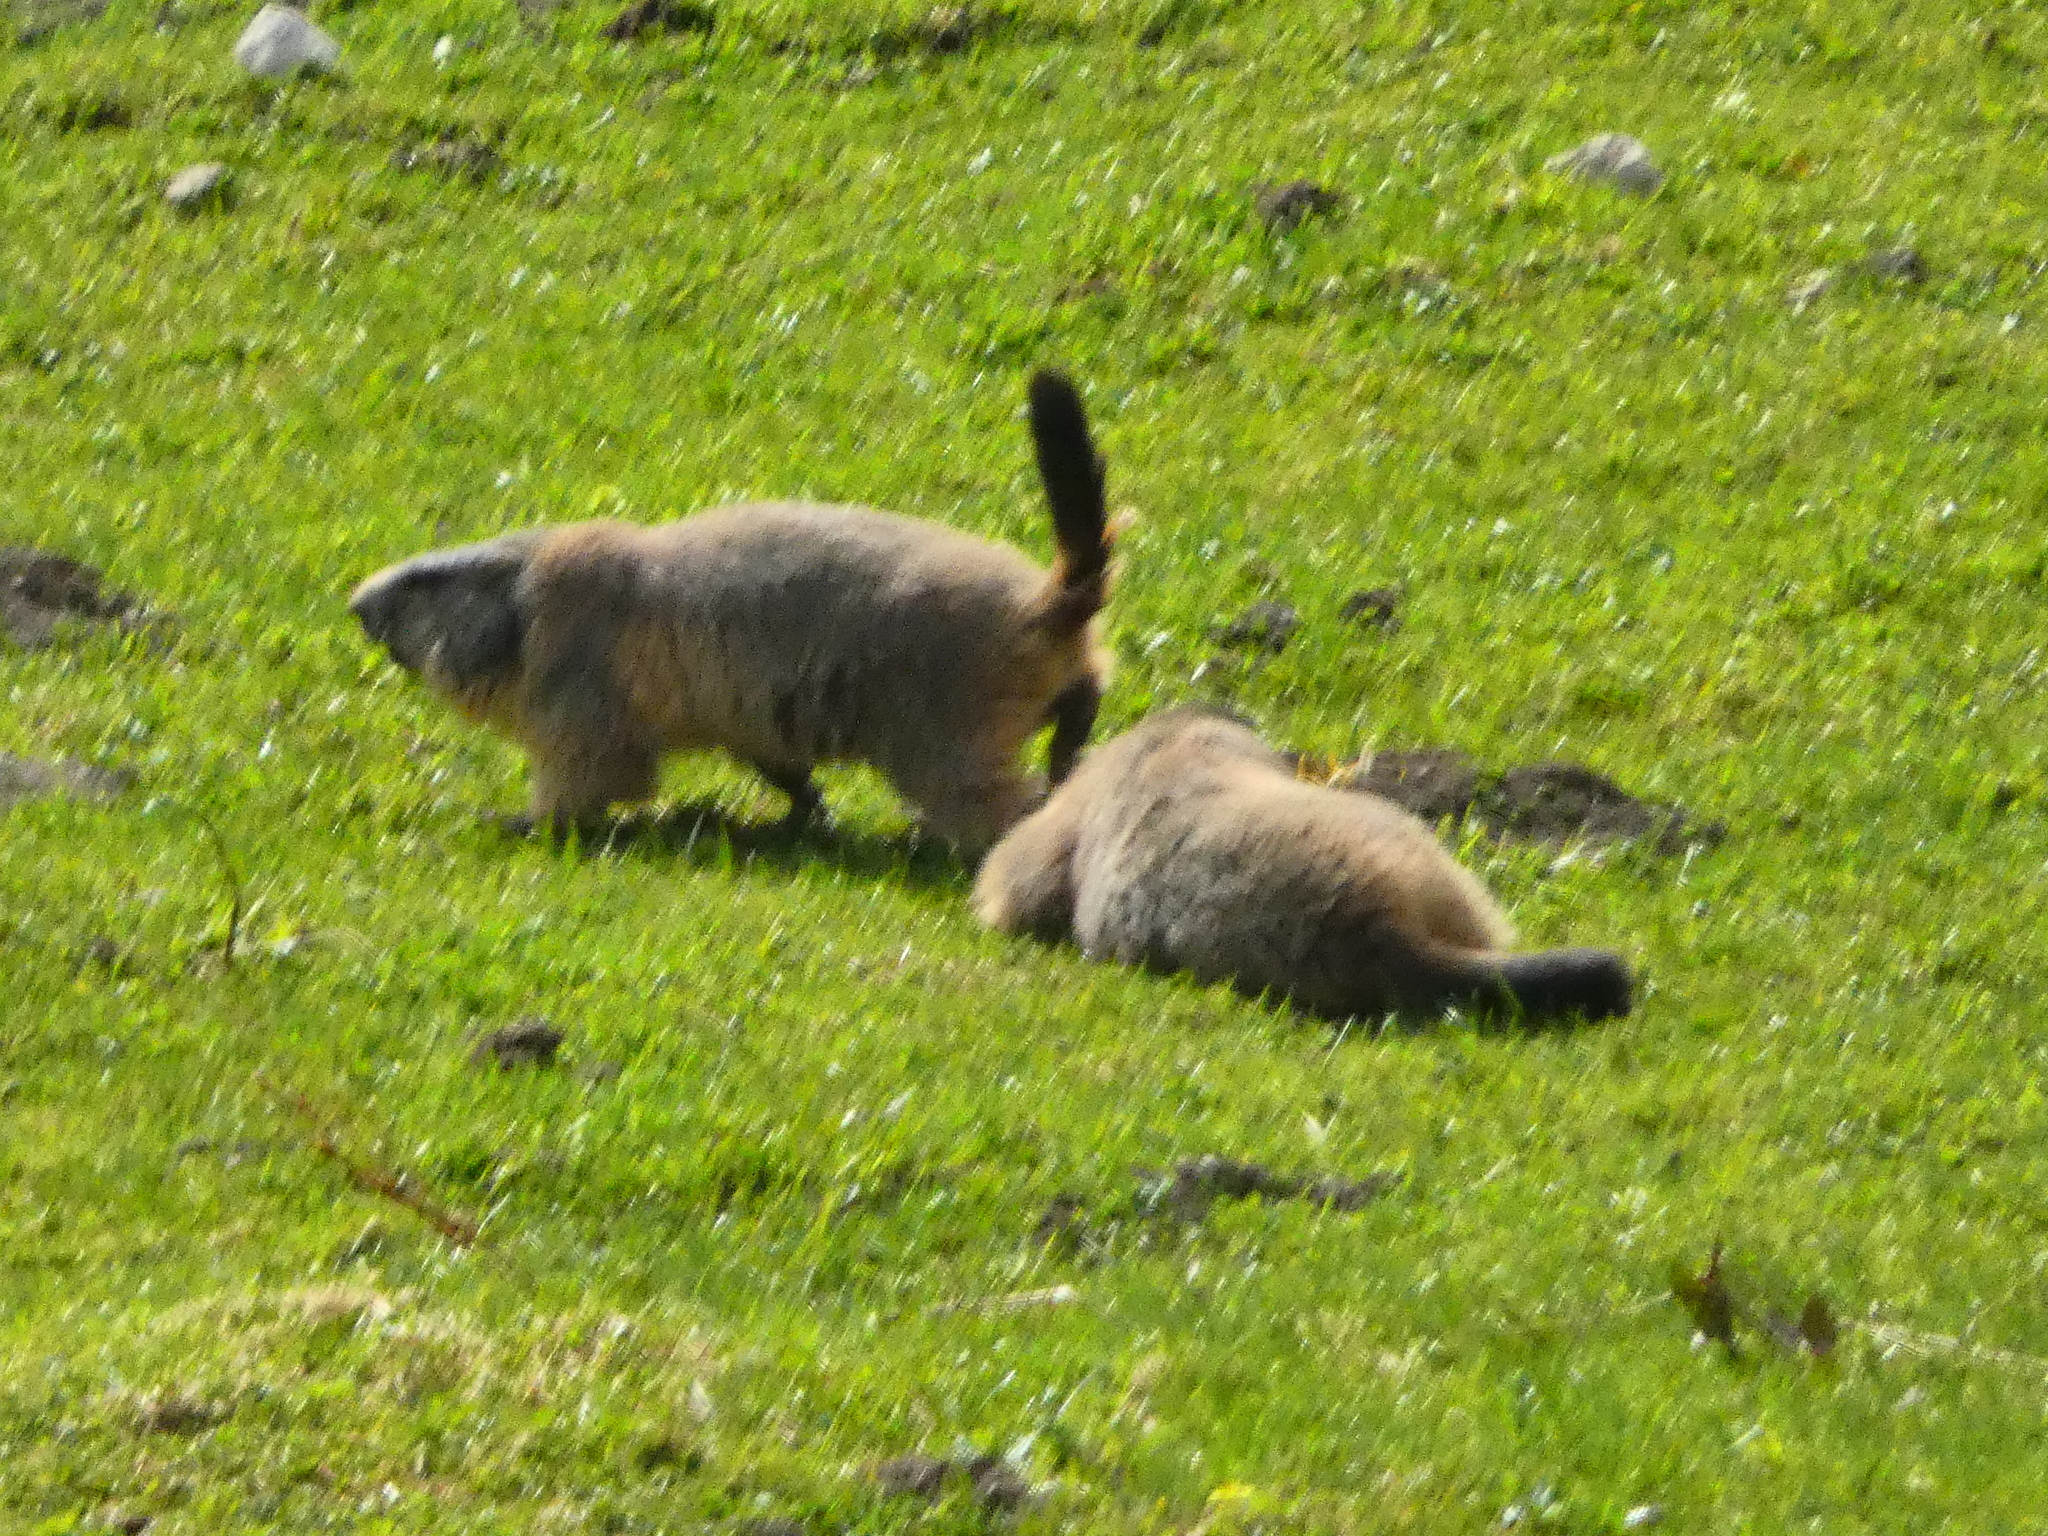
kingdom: Animalia
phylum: Chordata
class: Mammalia
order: Rodentia
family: Sciuridae
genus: Marmota
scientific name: Marmota marmota
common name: Alpine marmot
